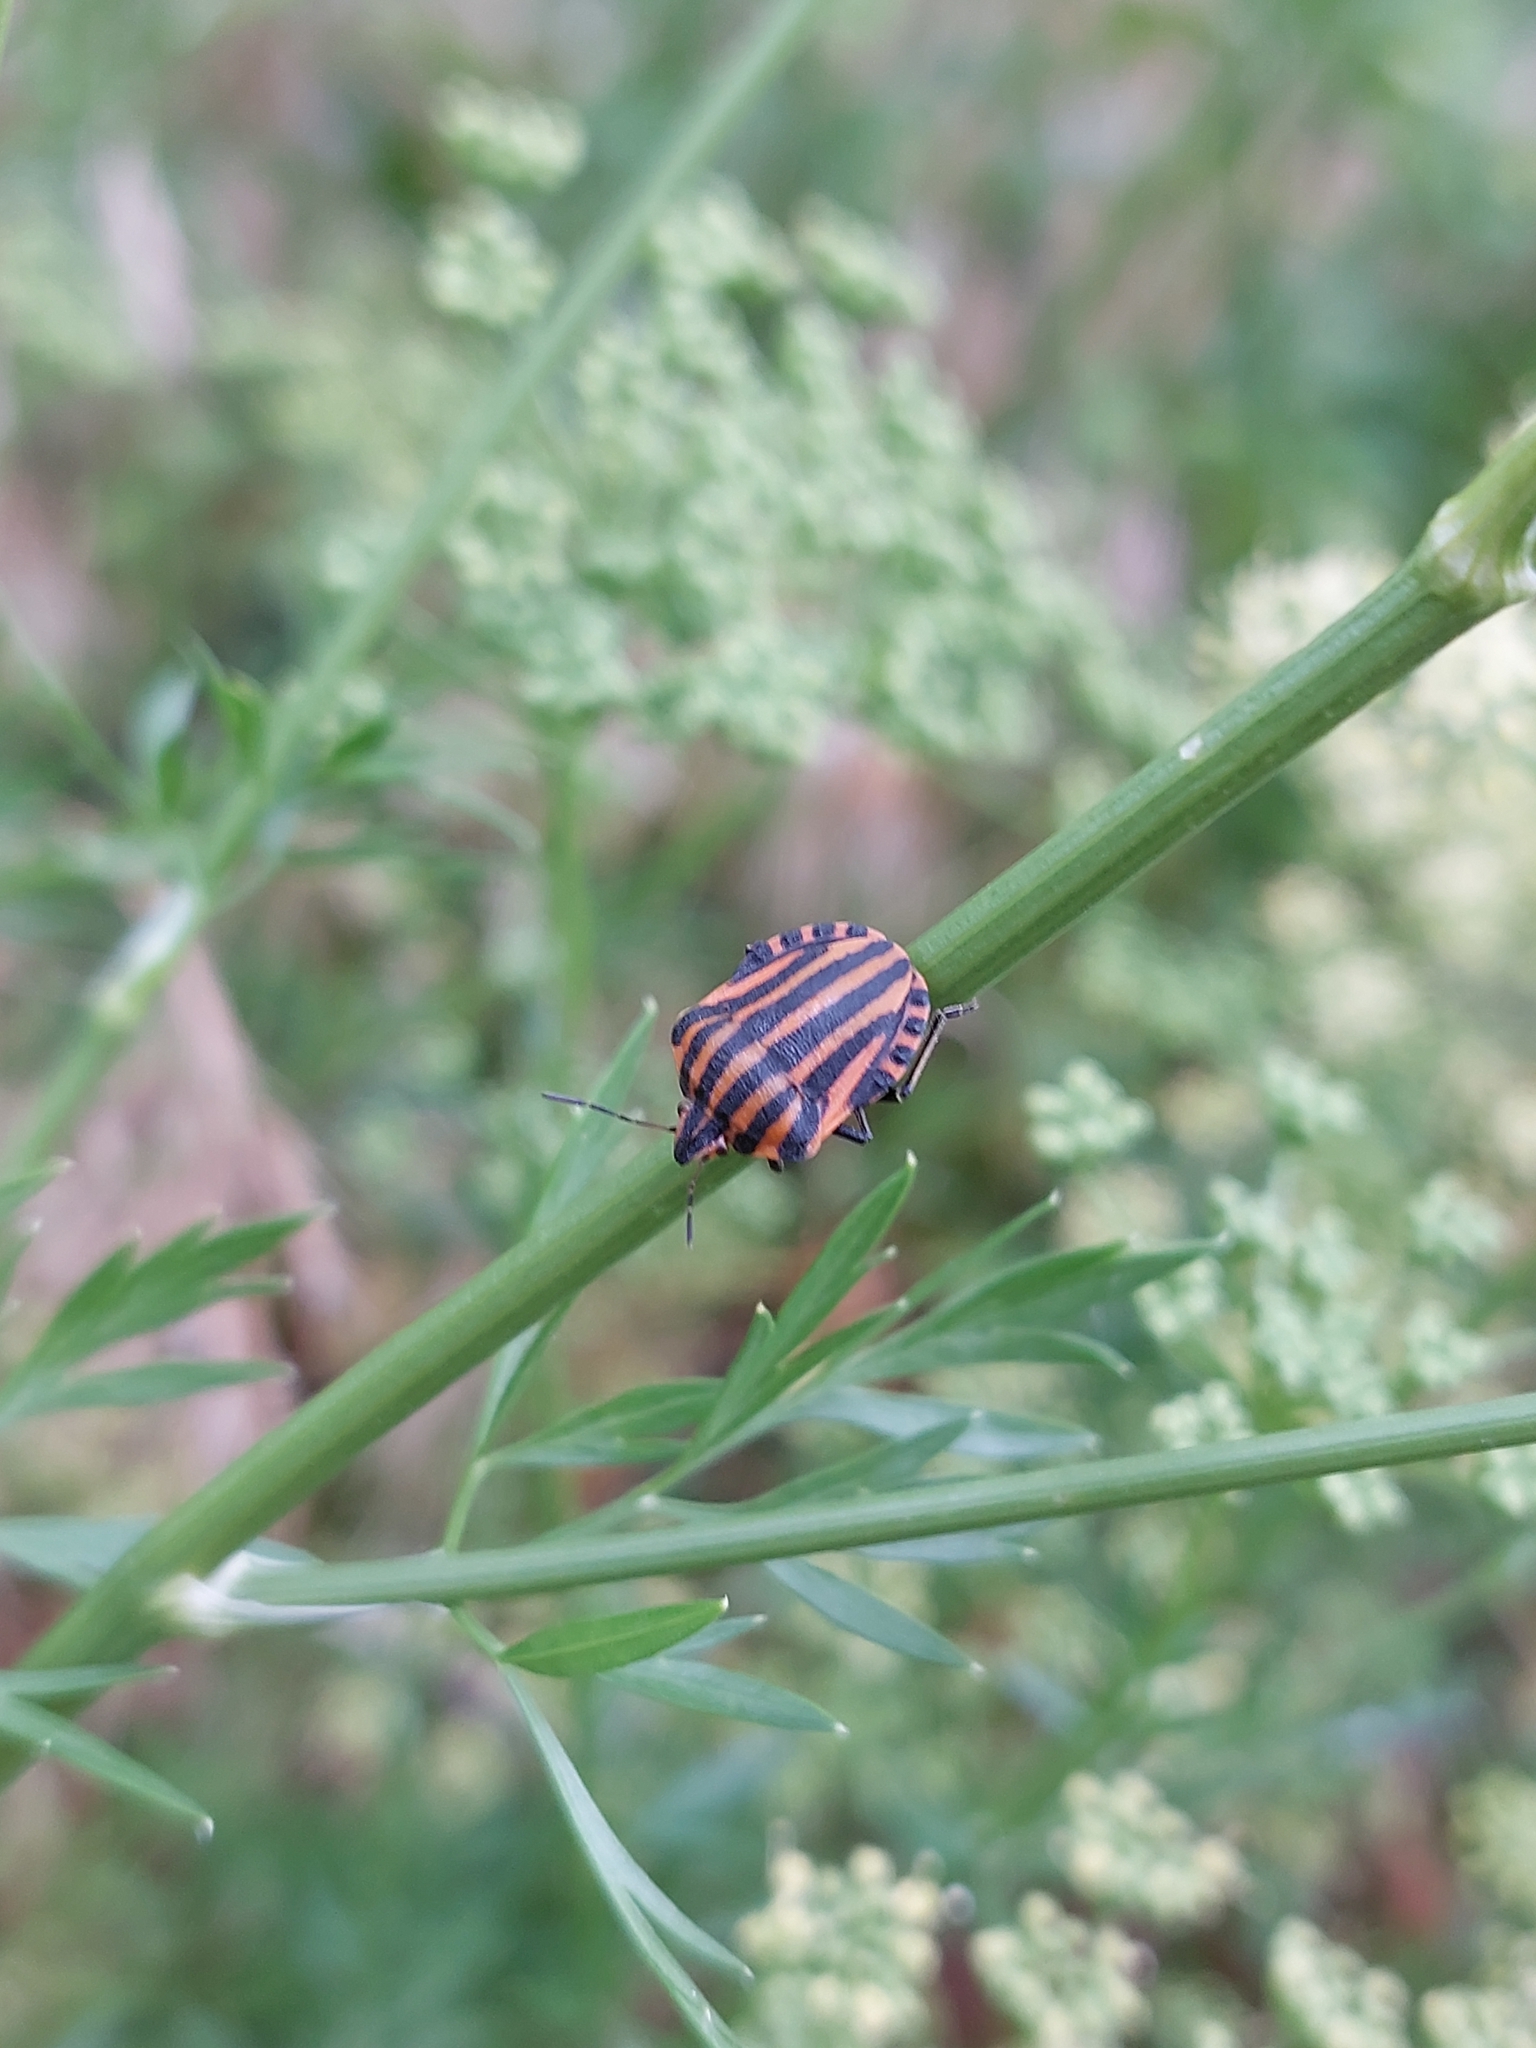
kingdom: Animalia
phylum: Arthropoda
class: Insecta
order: Hemiptera
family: Pentatomidae
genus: Graphosoma
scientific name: Graphosoma italicum
